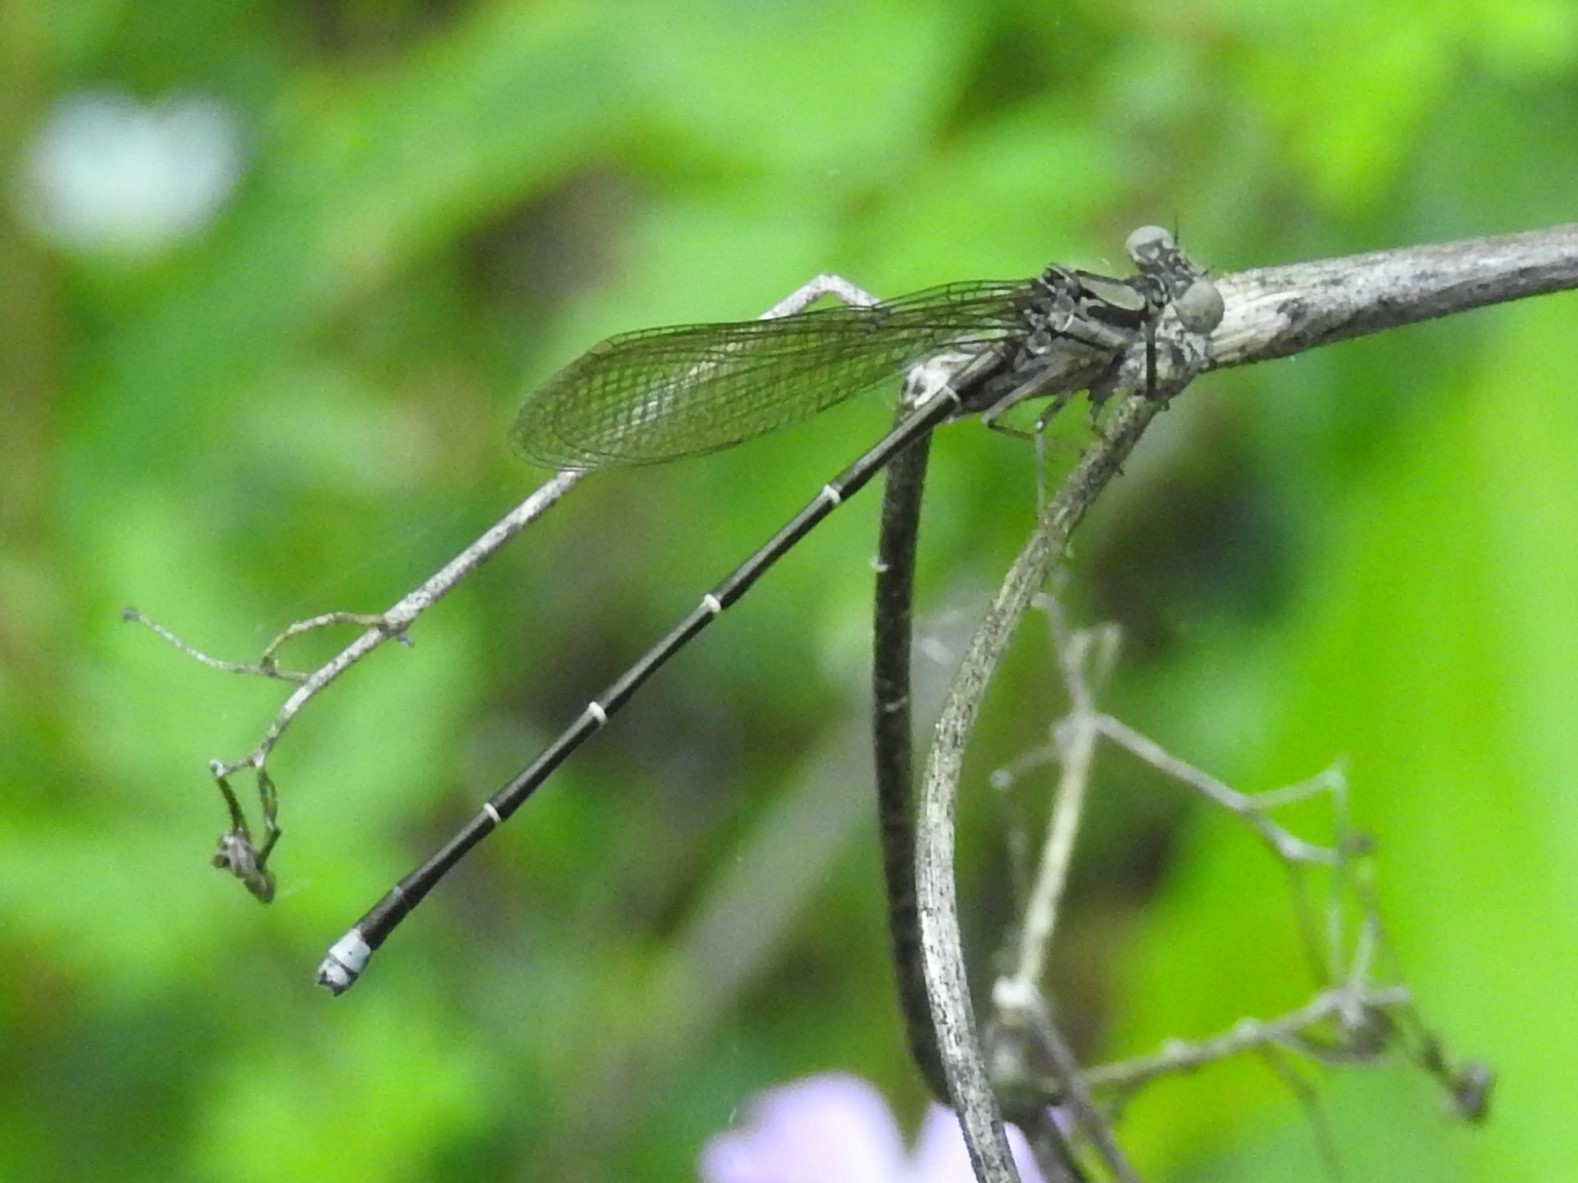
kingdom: Animalia
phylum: Arthropoda
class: Insecta
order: Odonata
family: Coenagrionidae
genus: Argia
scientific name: Argia tibialis
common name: Blue-tipped dancer
